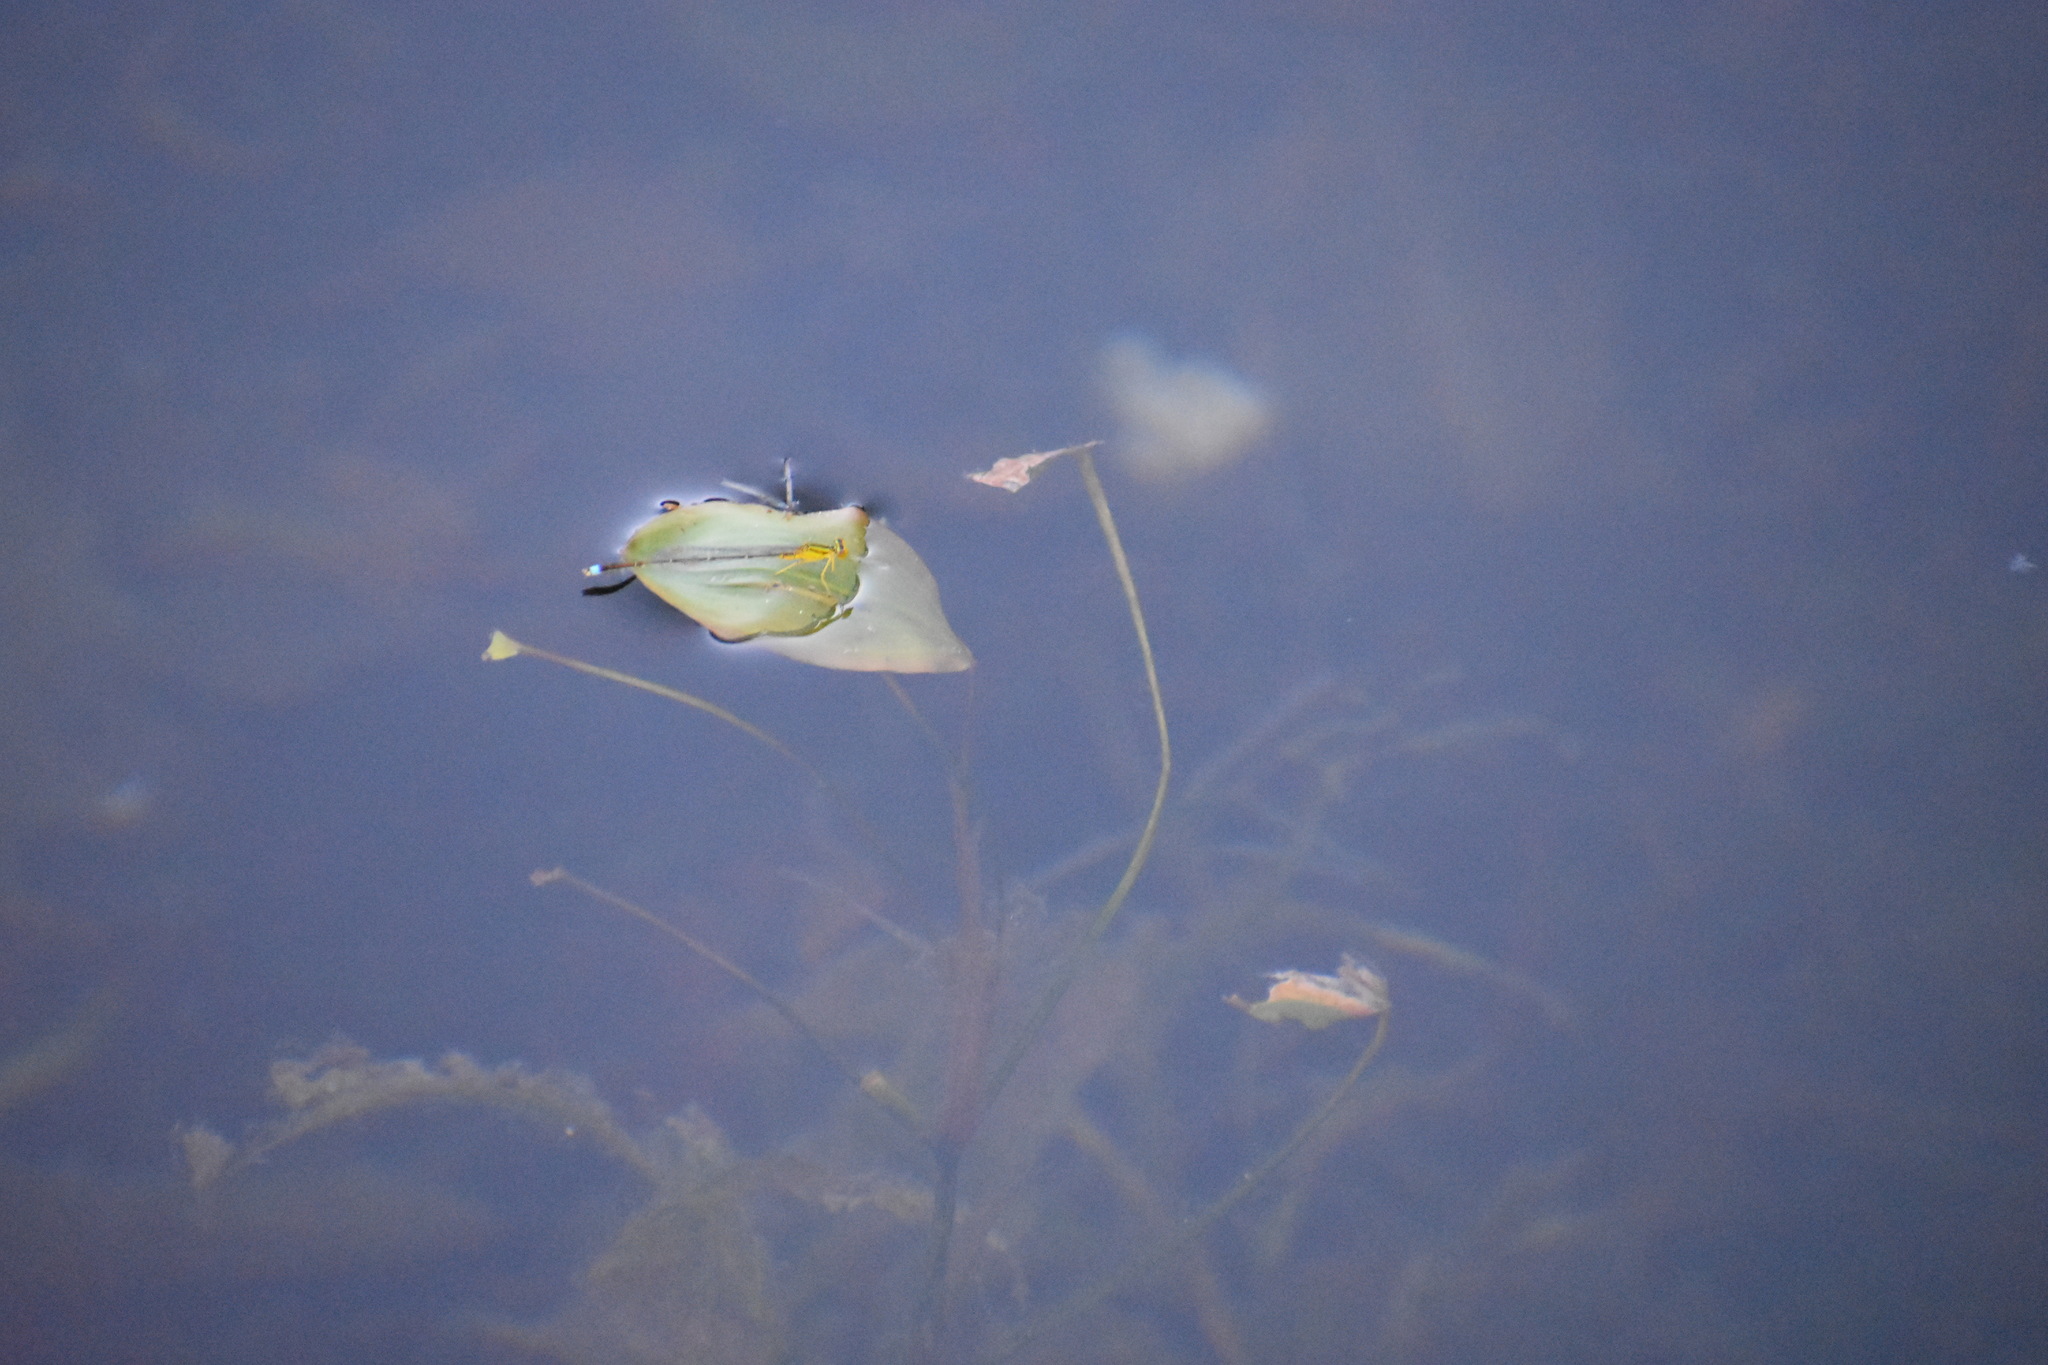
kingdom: Animalia
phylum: Arthropoda
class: Insecta
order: Odonata
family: Coenagrionidae
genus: Enallagma
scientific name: Enallagma vesperum
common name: Vesper bluet
